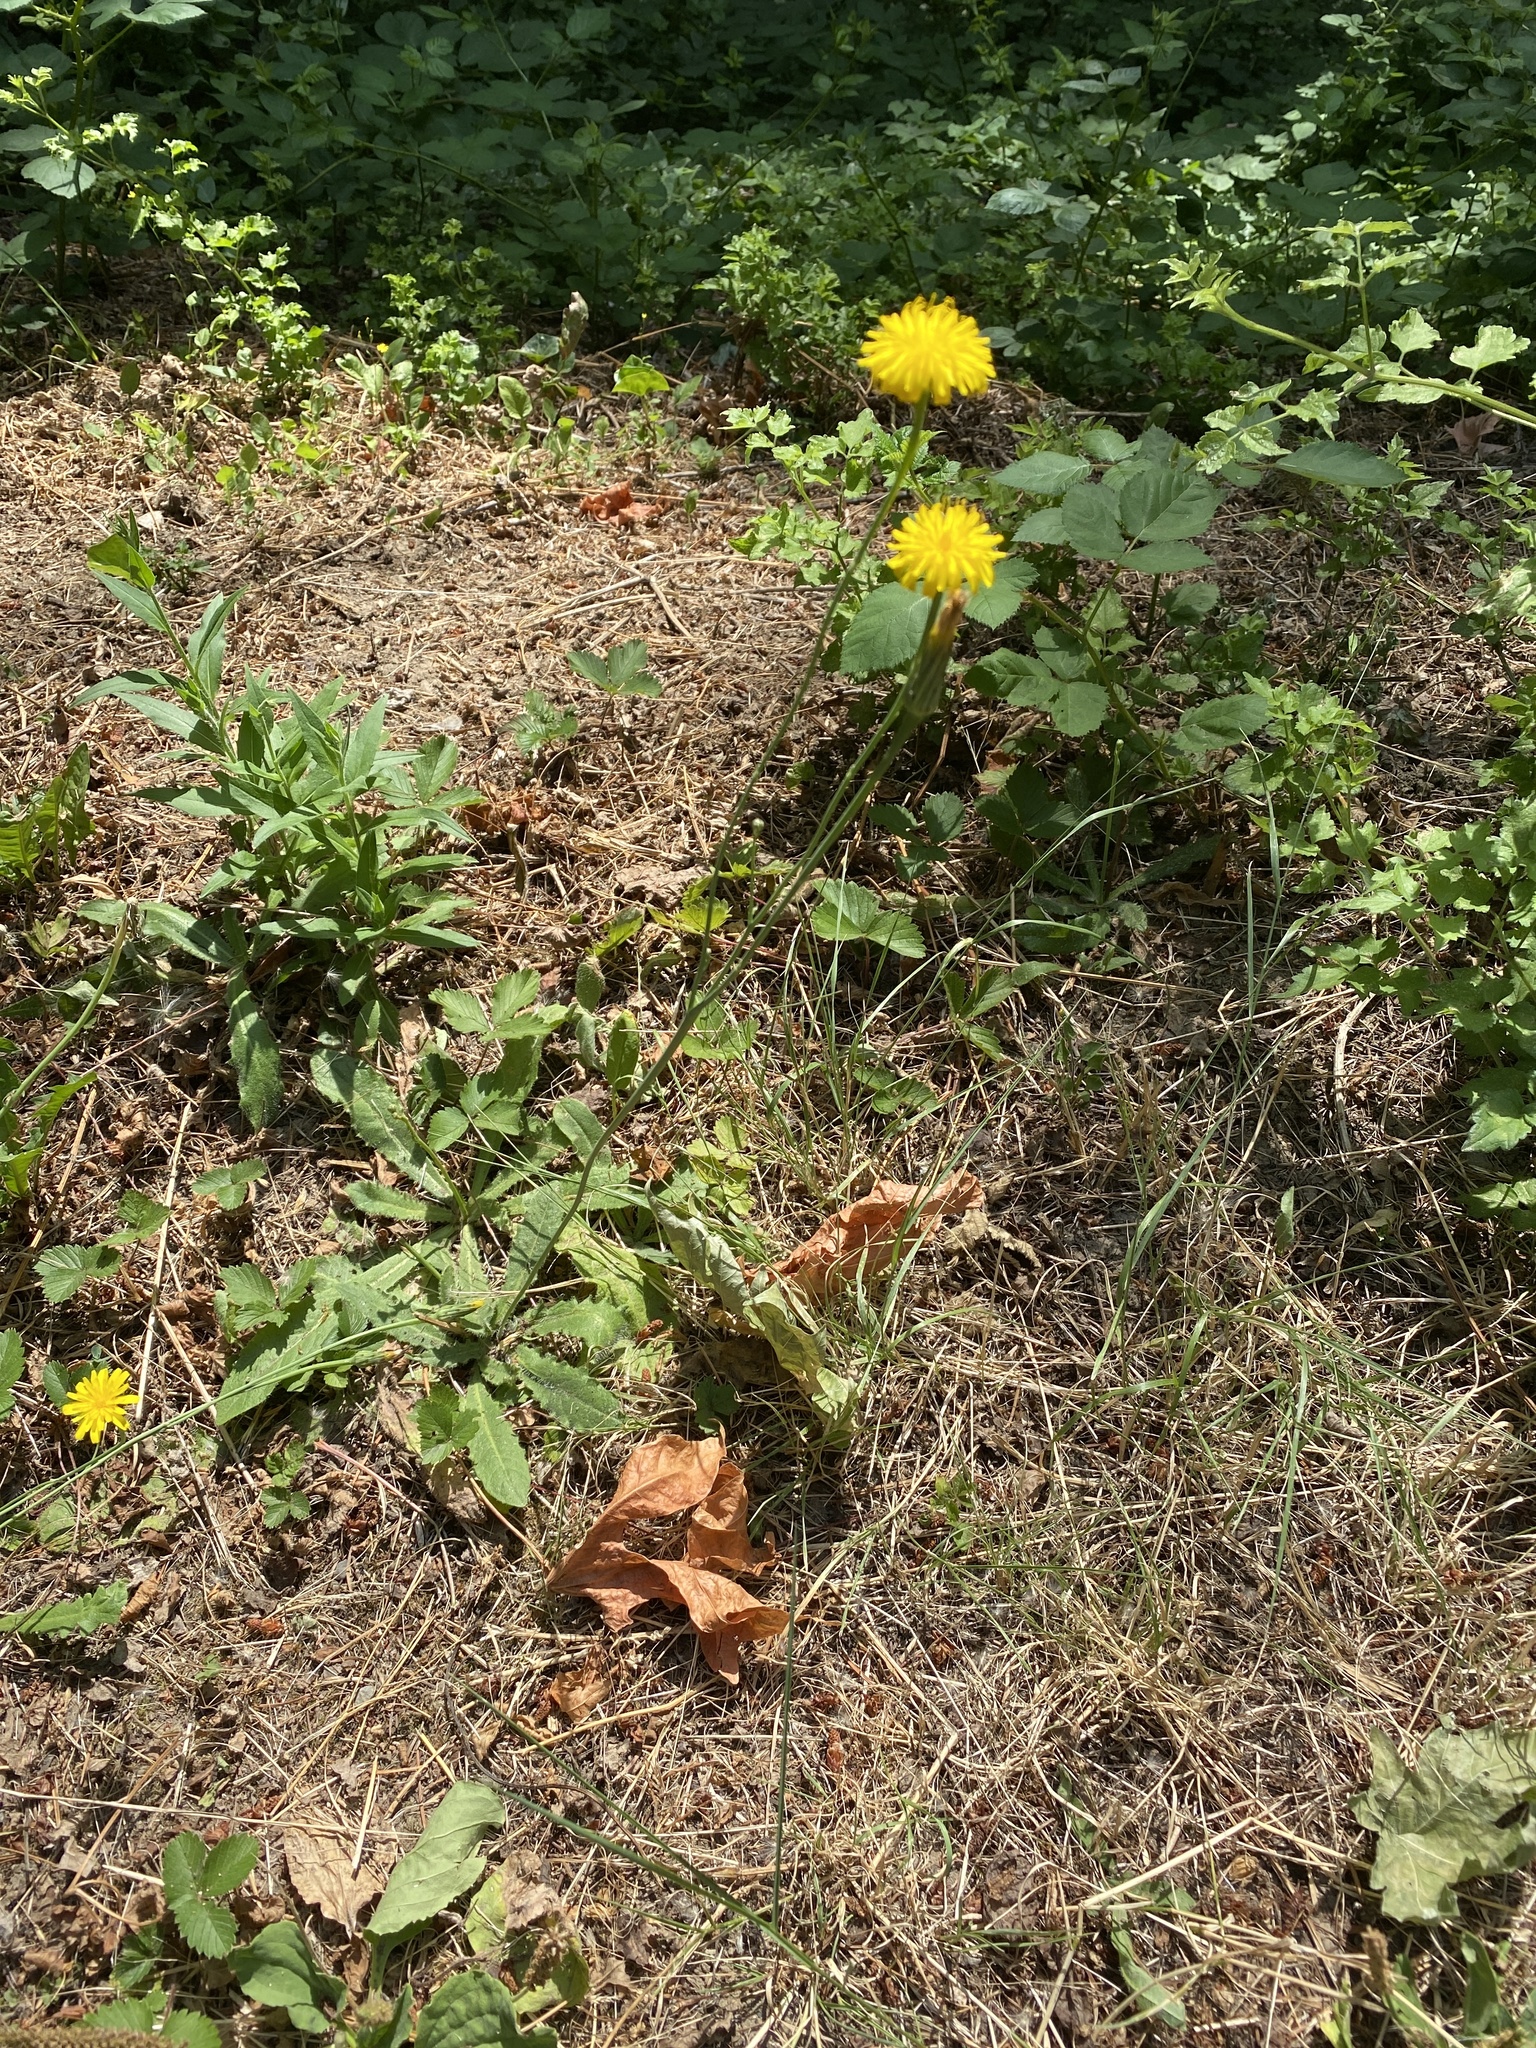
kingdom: Plantae
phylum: Tracheophyta
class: Magnoliopsida
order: Asterales
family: Asteraceae
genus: Taraxacum
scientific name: Taraxacum officinale
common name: Common dandelion
